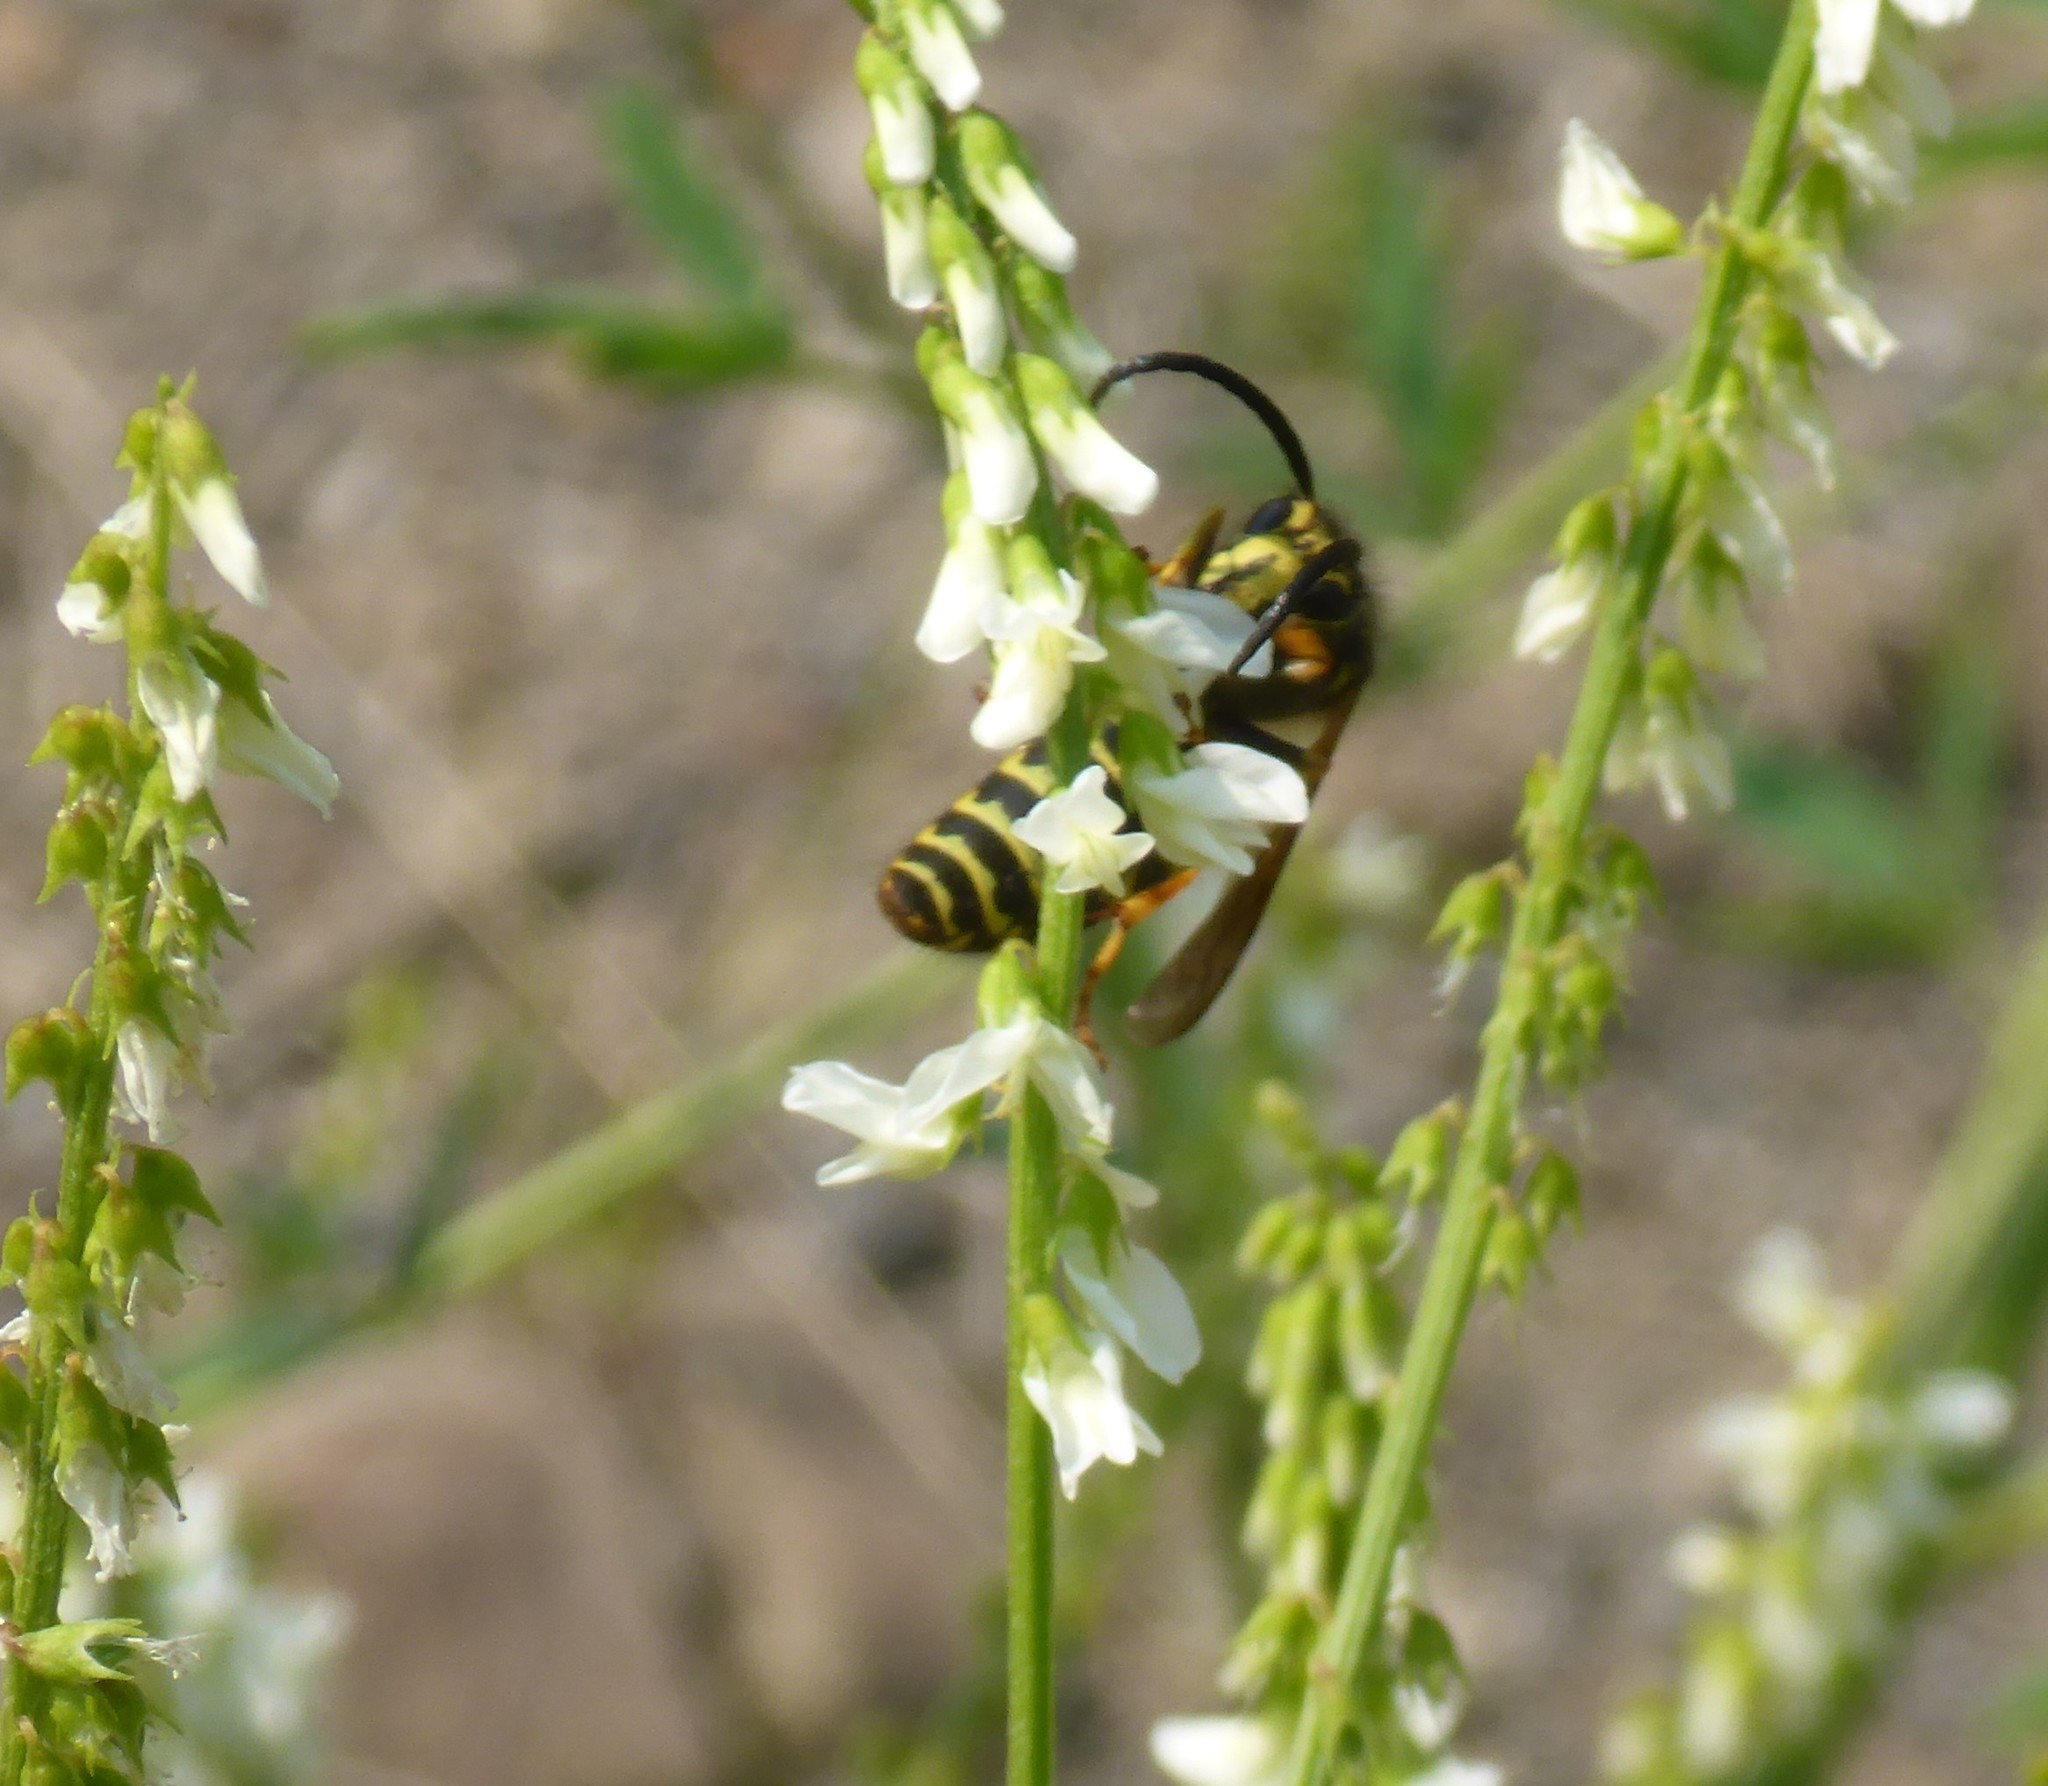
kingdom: Animalia
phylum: Arthropoda
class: Insecta
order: Hymenoptera
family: Vespidae
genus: Dolichovespula
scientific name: Dolichovespula
